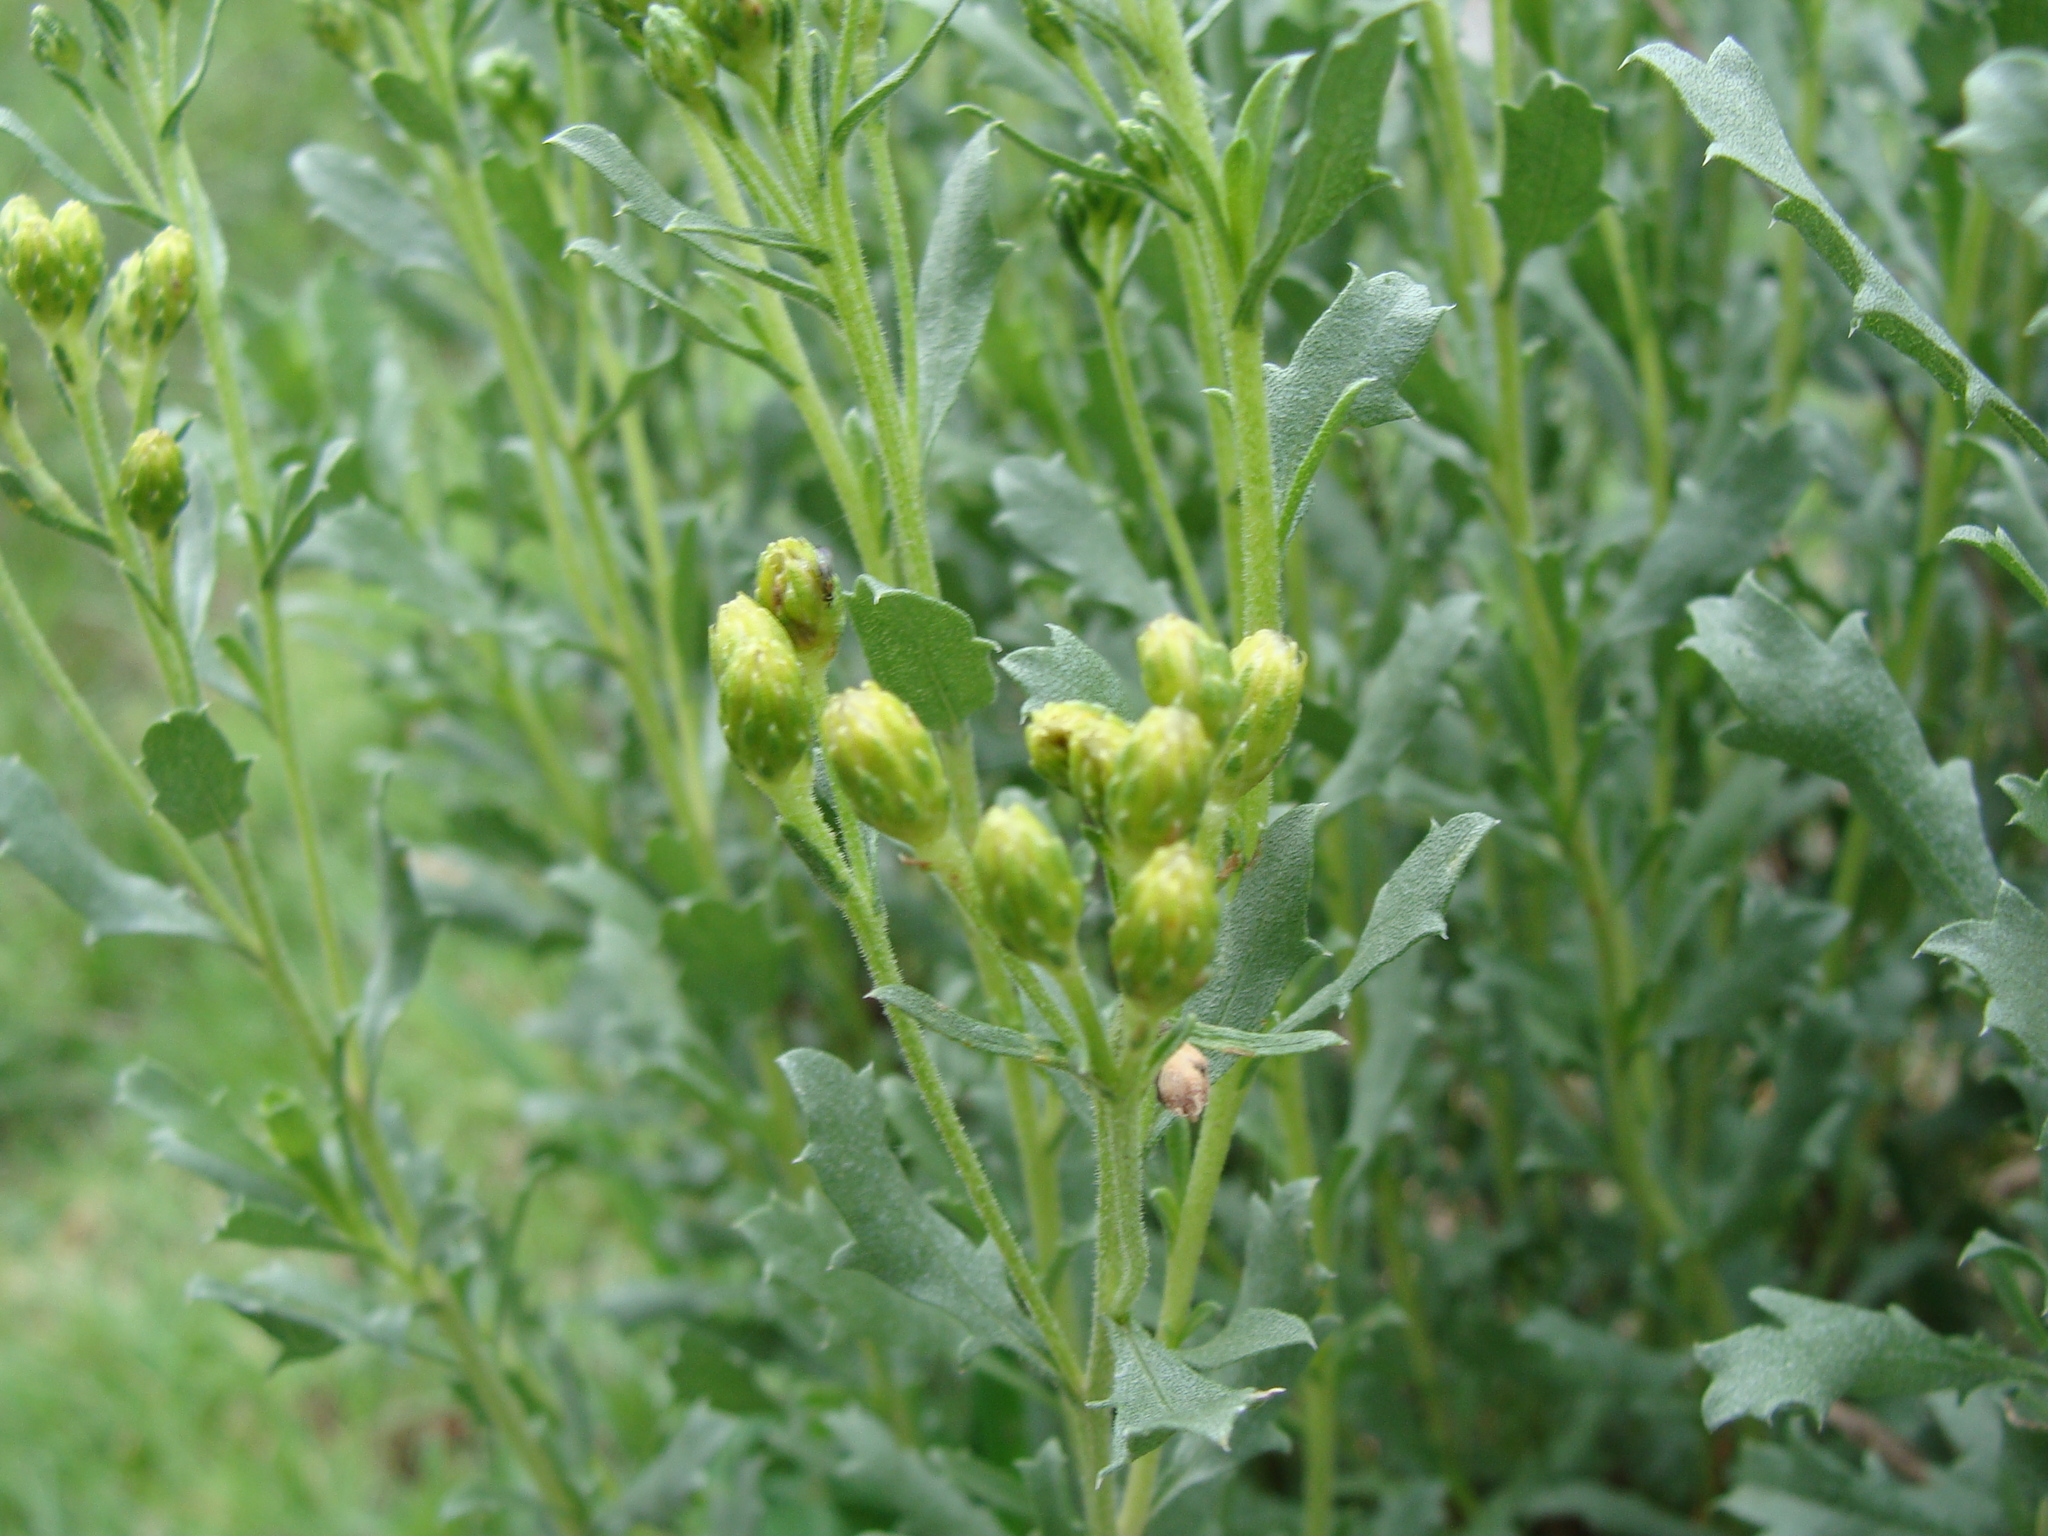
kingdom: Plantae
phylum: Tracheophyta
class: Magnoliopsida
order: Asterales
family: Asteraceae
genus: Isocoma
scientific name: Isocoma veneta
